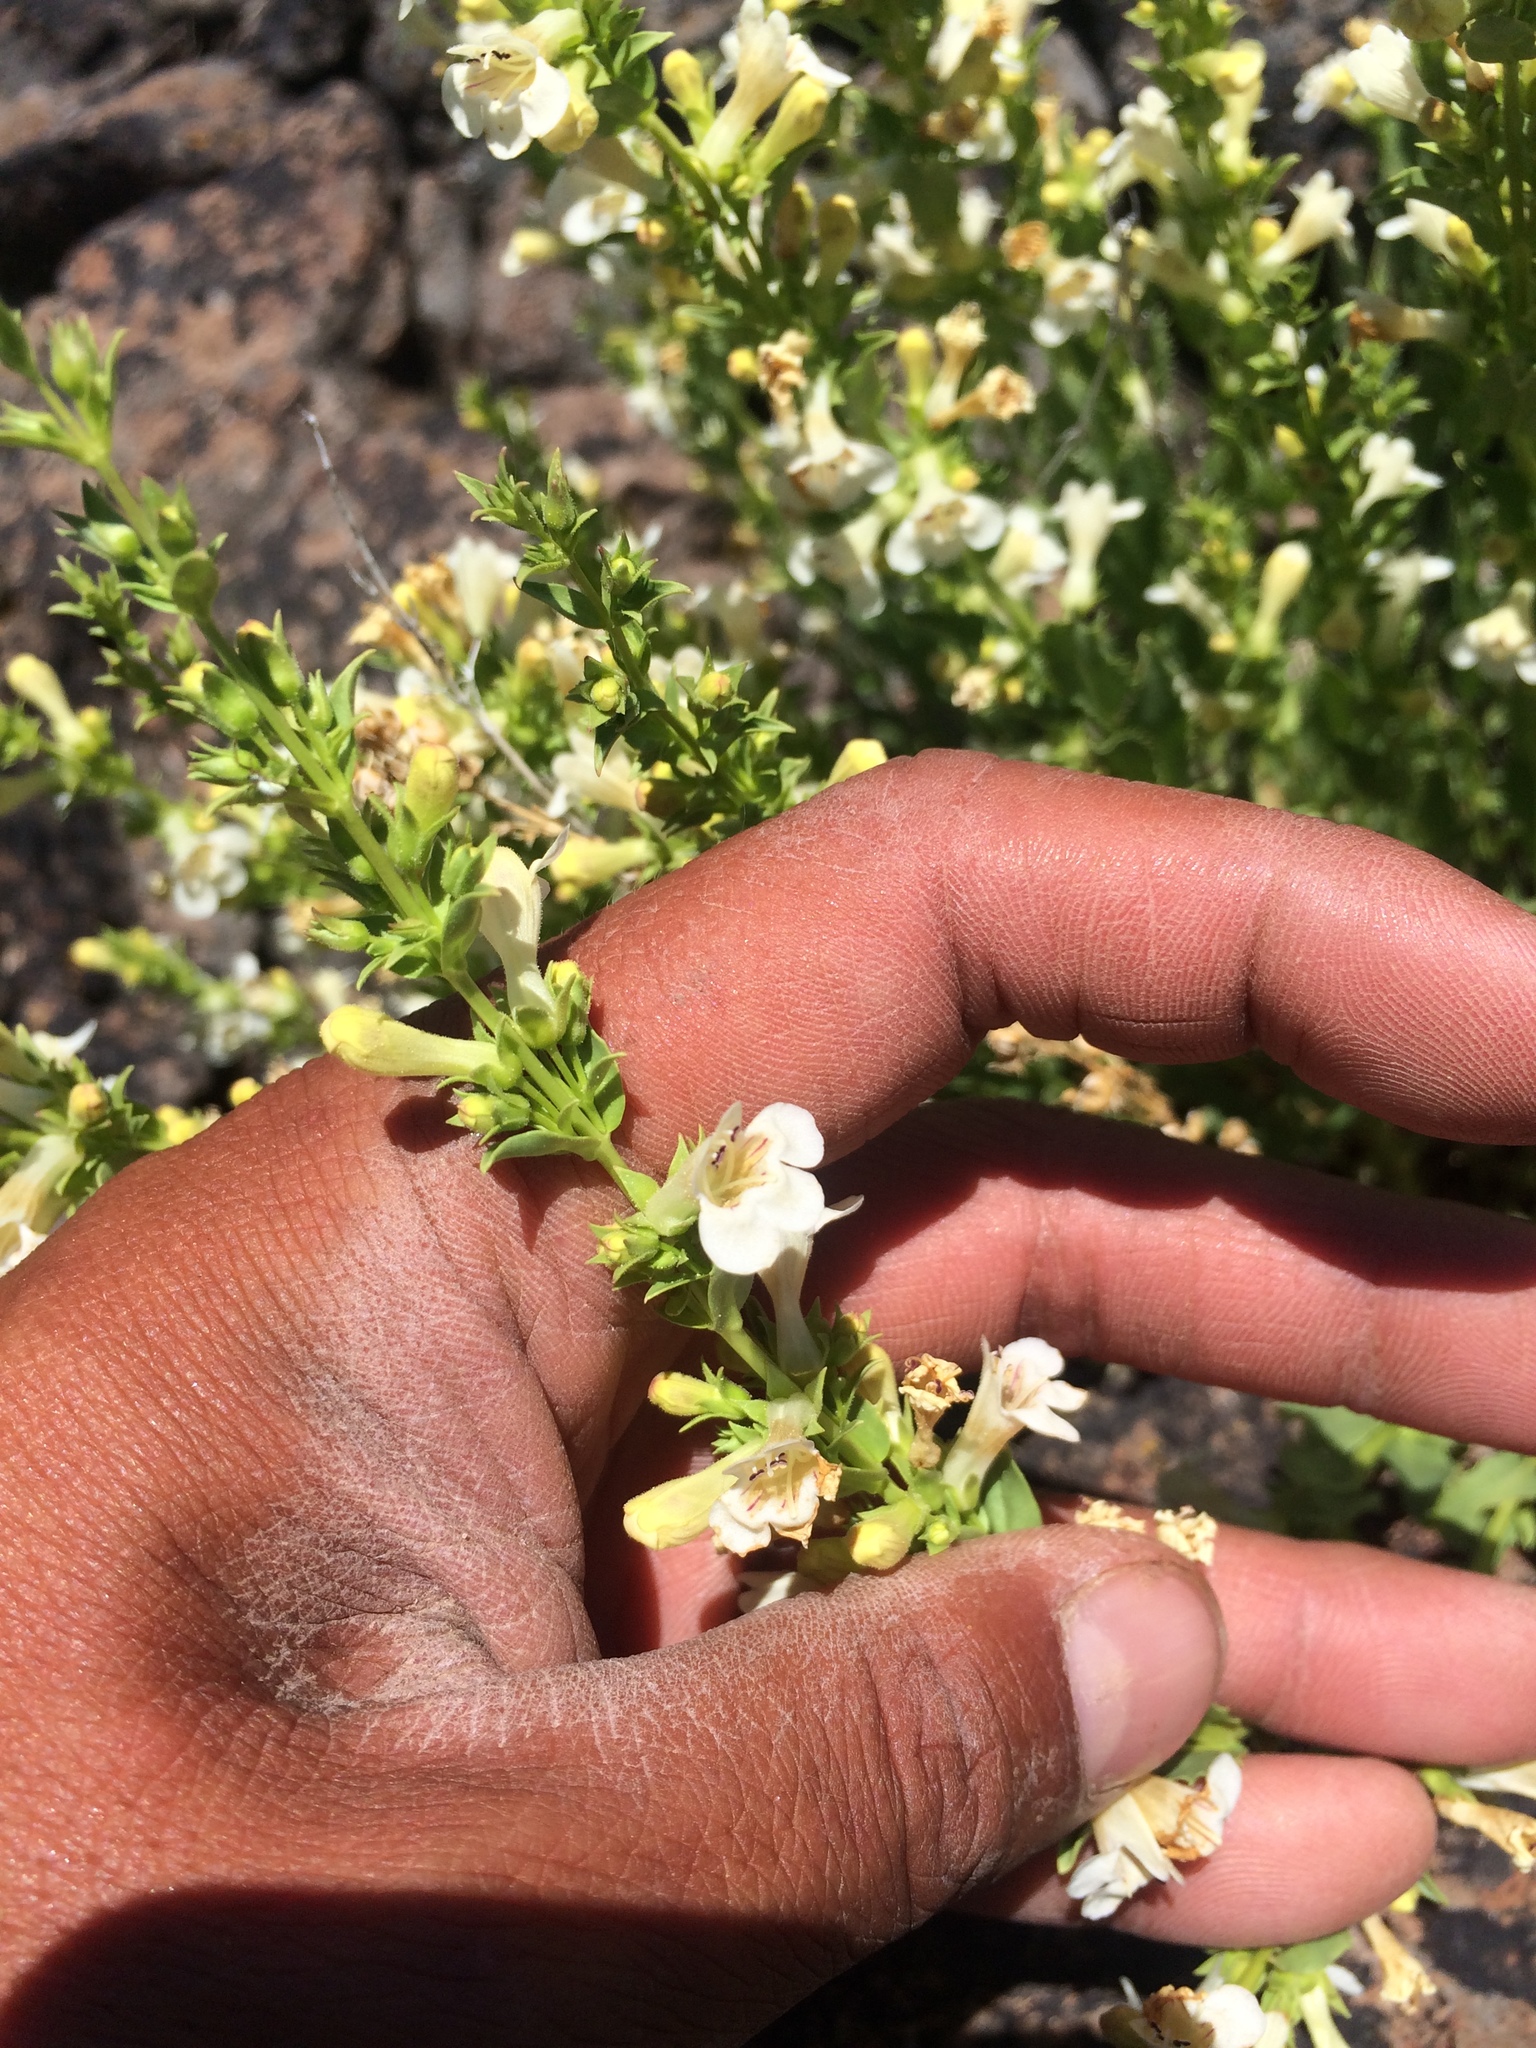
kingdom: Plantae
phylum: Tracheophyta
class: Magnoliopsida
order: Lamiales
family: Plantaginaceae
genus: Penstemon
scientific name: Penstemon deustus
